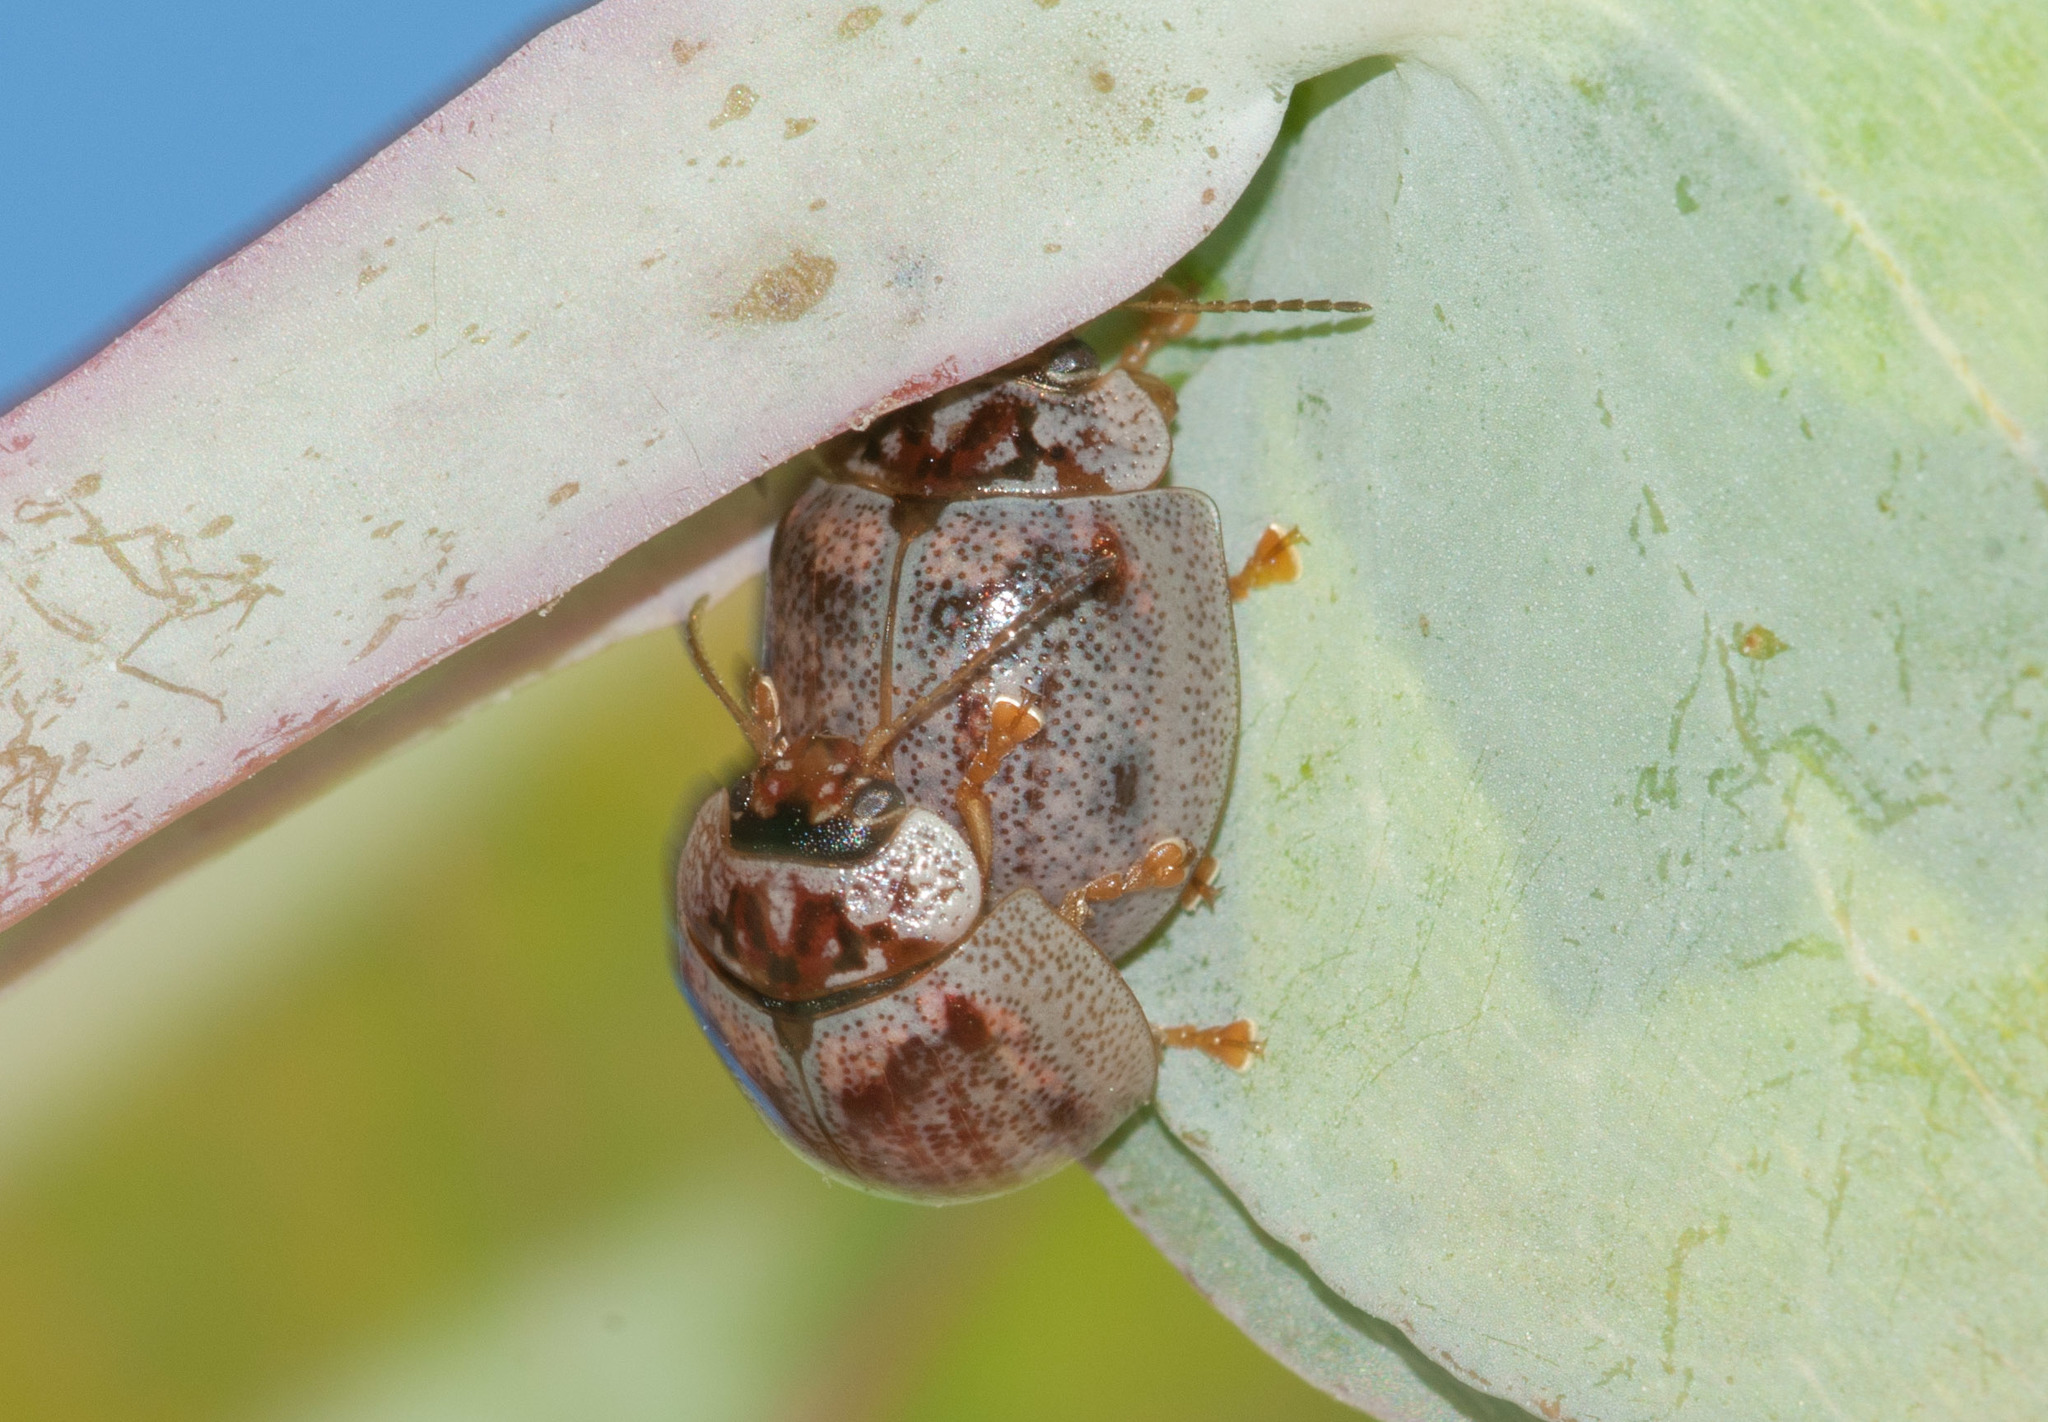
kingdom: Animalia
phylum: Arthropoda
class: Insecta
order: Coleoptera
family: Chrysomelidae
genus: Paropsisterna
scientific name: Paropsisterna m-fuscum
